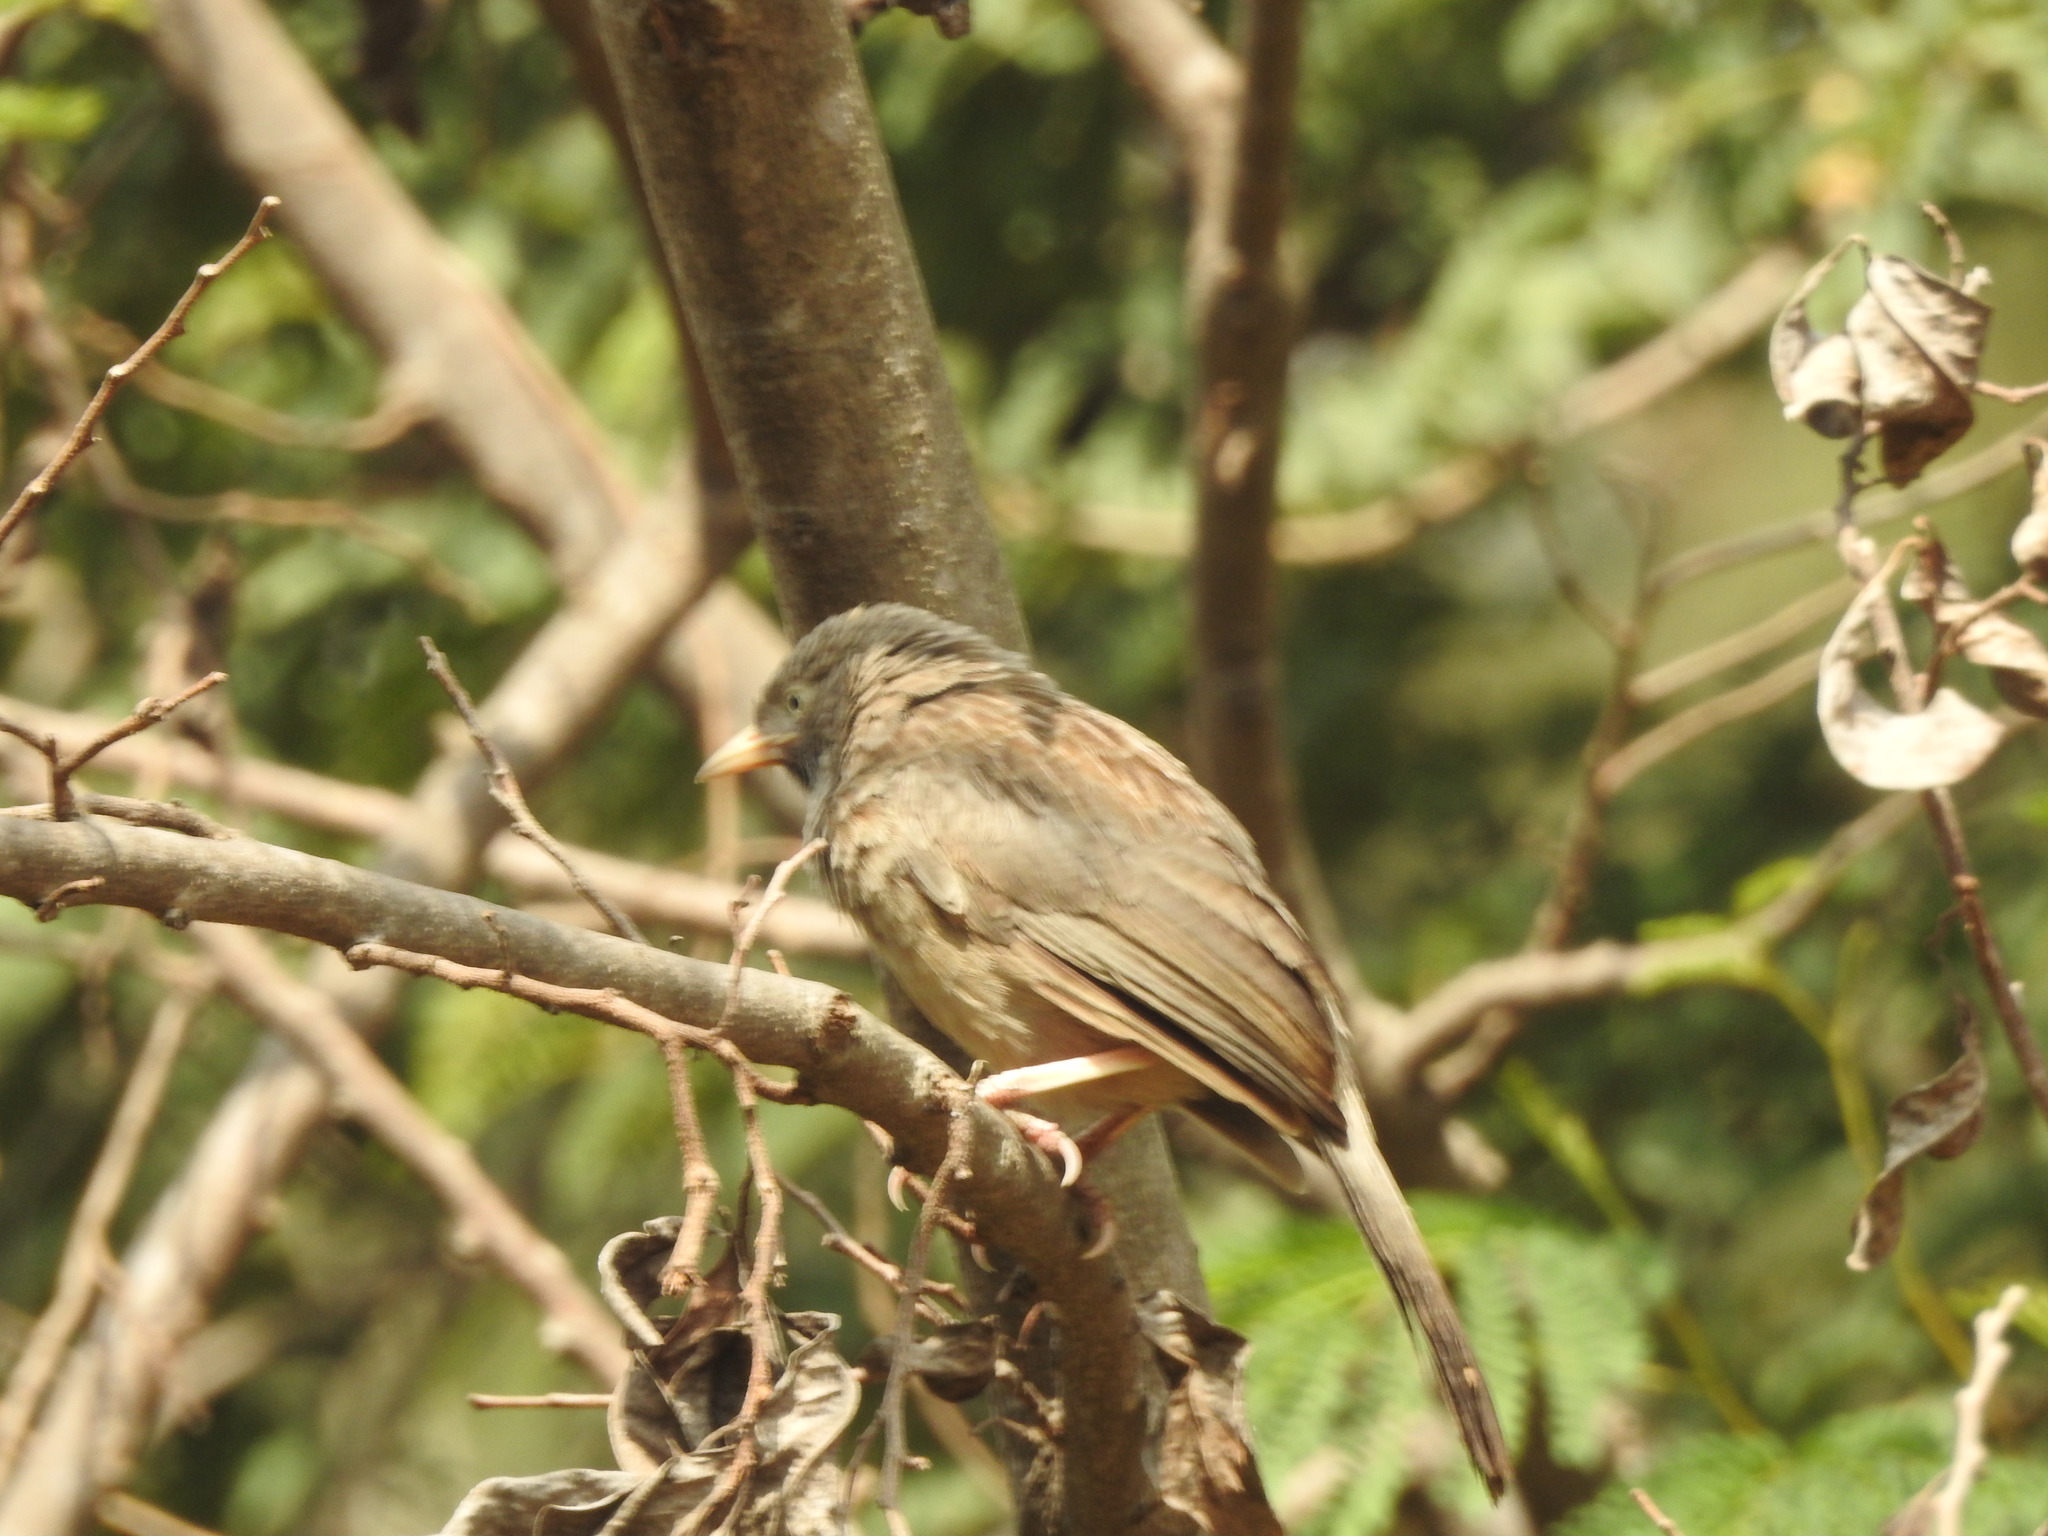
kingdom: Animalia
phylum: Chordata
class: Aves
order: Passeriformes
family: Leiothrichidae
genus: Turdoides
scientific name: Turdoides affinis
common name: Yellow-billed babbler
